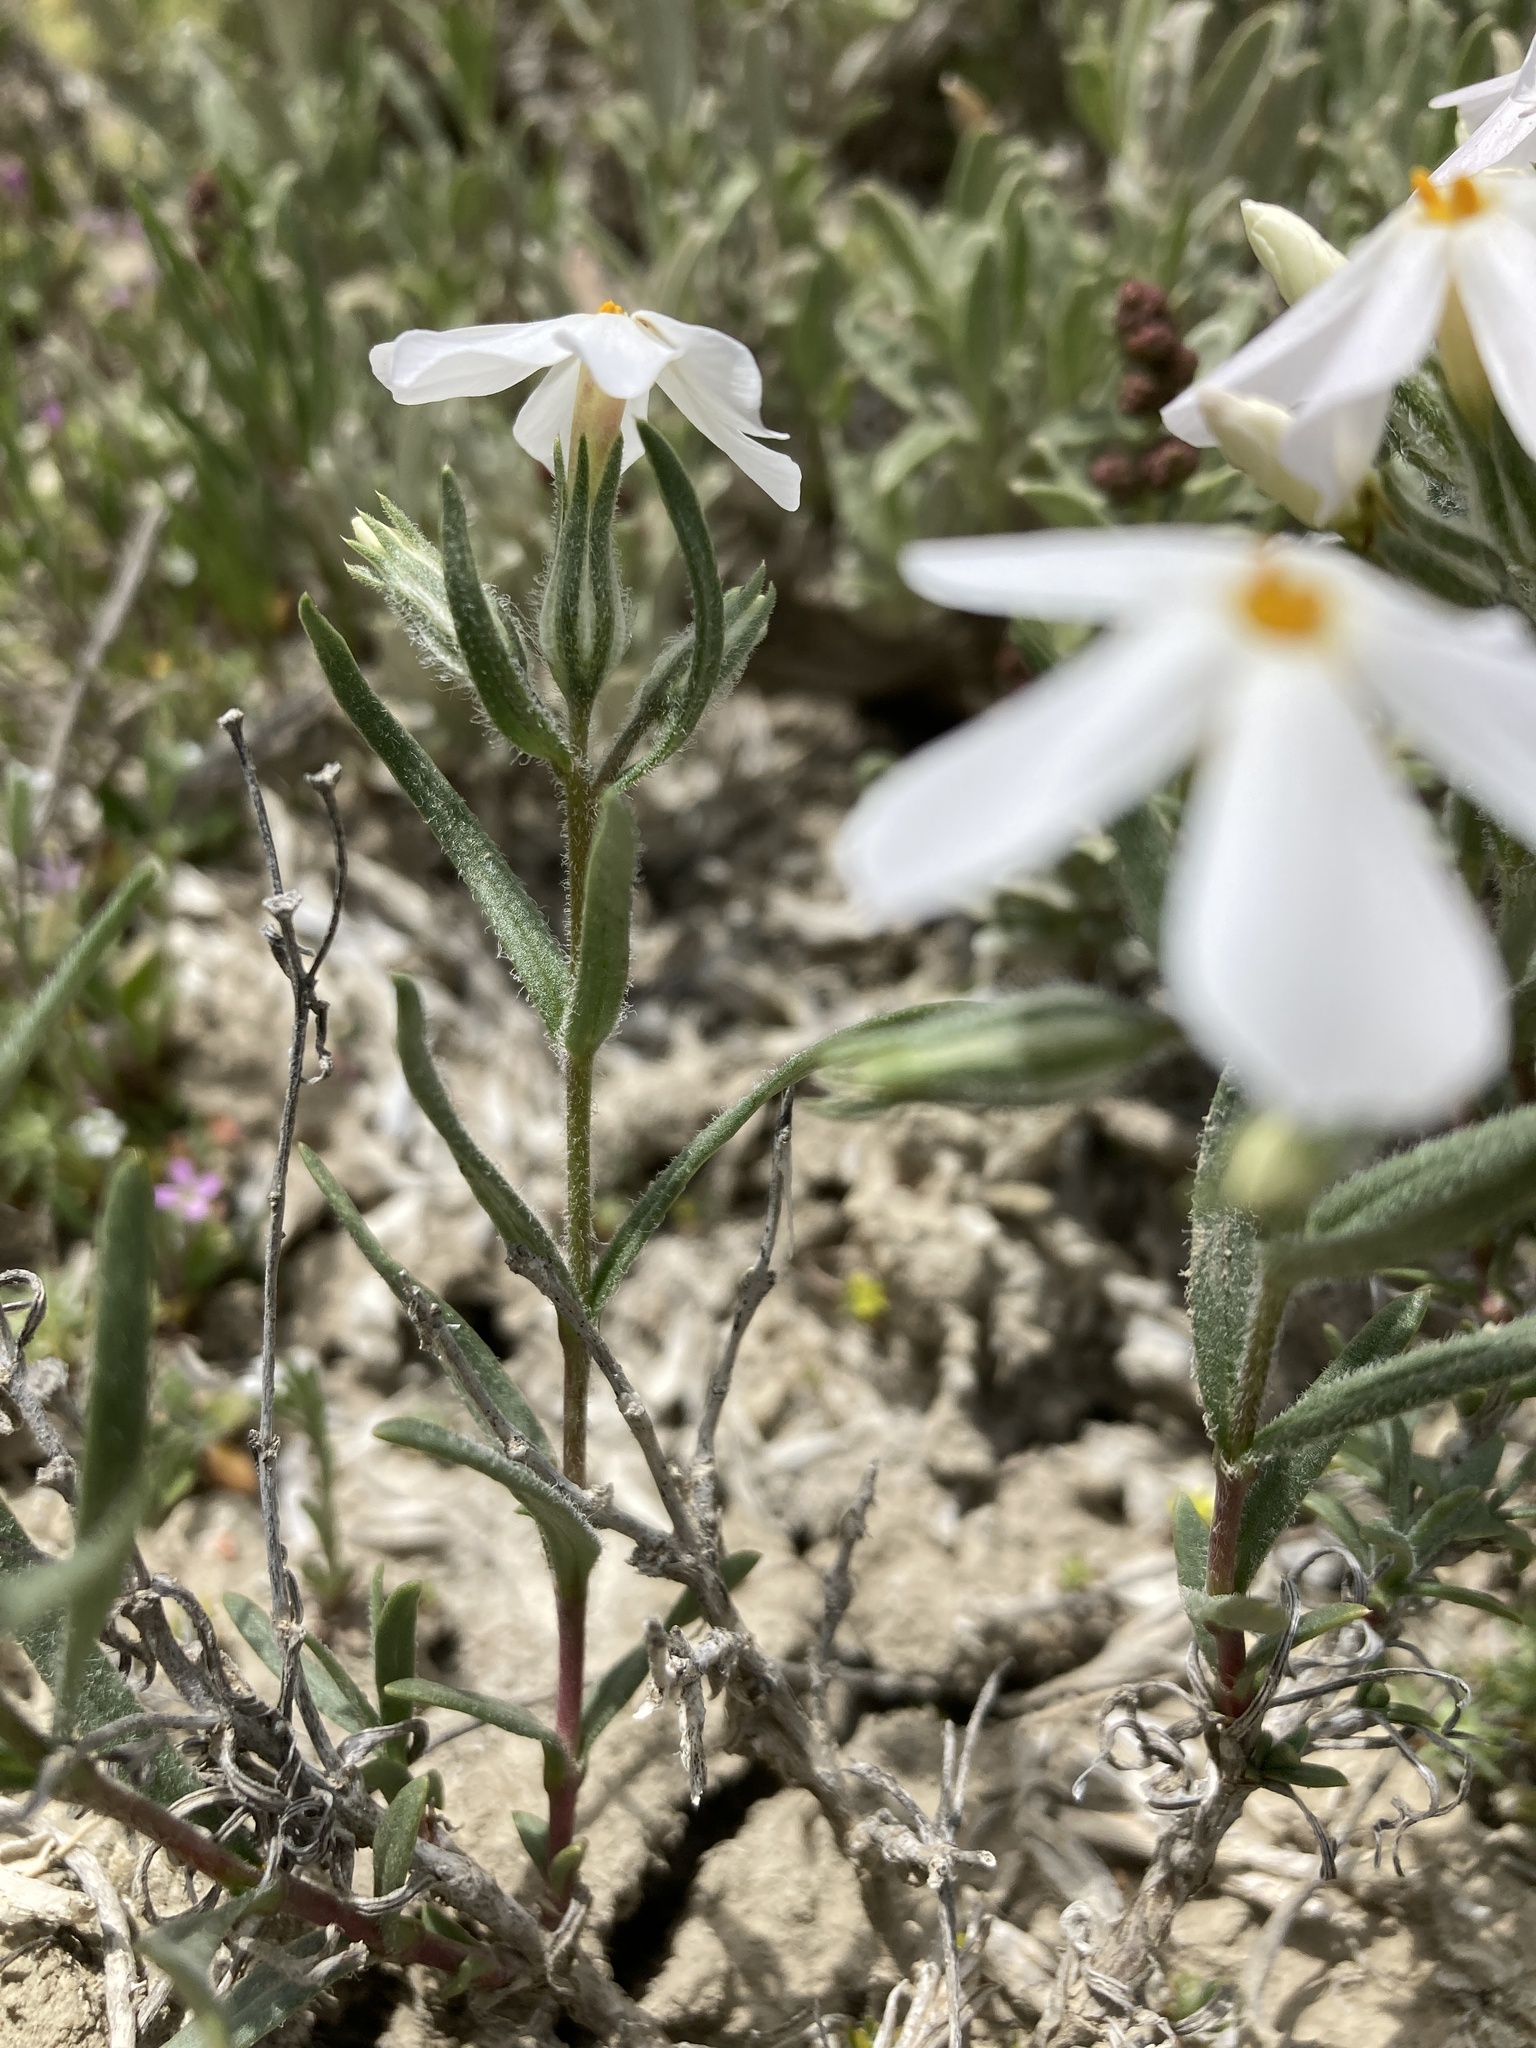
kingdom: Plantae
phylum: Tracheophyta
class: Magnoliopsida
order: Ericales
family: Polemoniaceae
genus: Phlox
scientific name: Phlox longifolia
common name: Longleaf phlox
